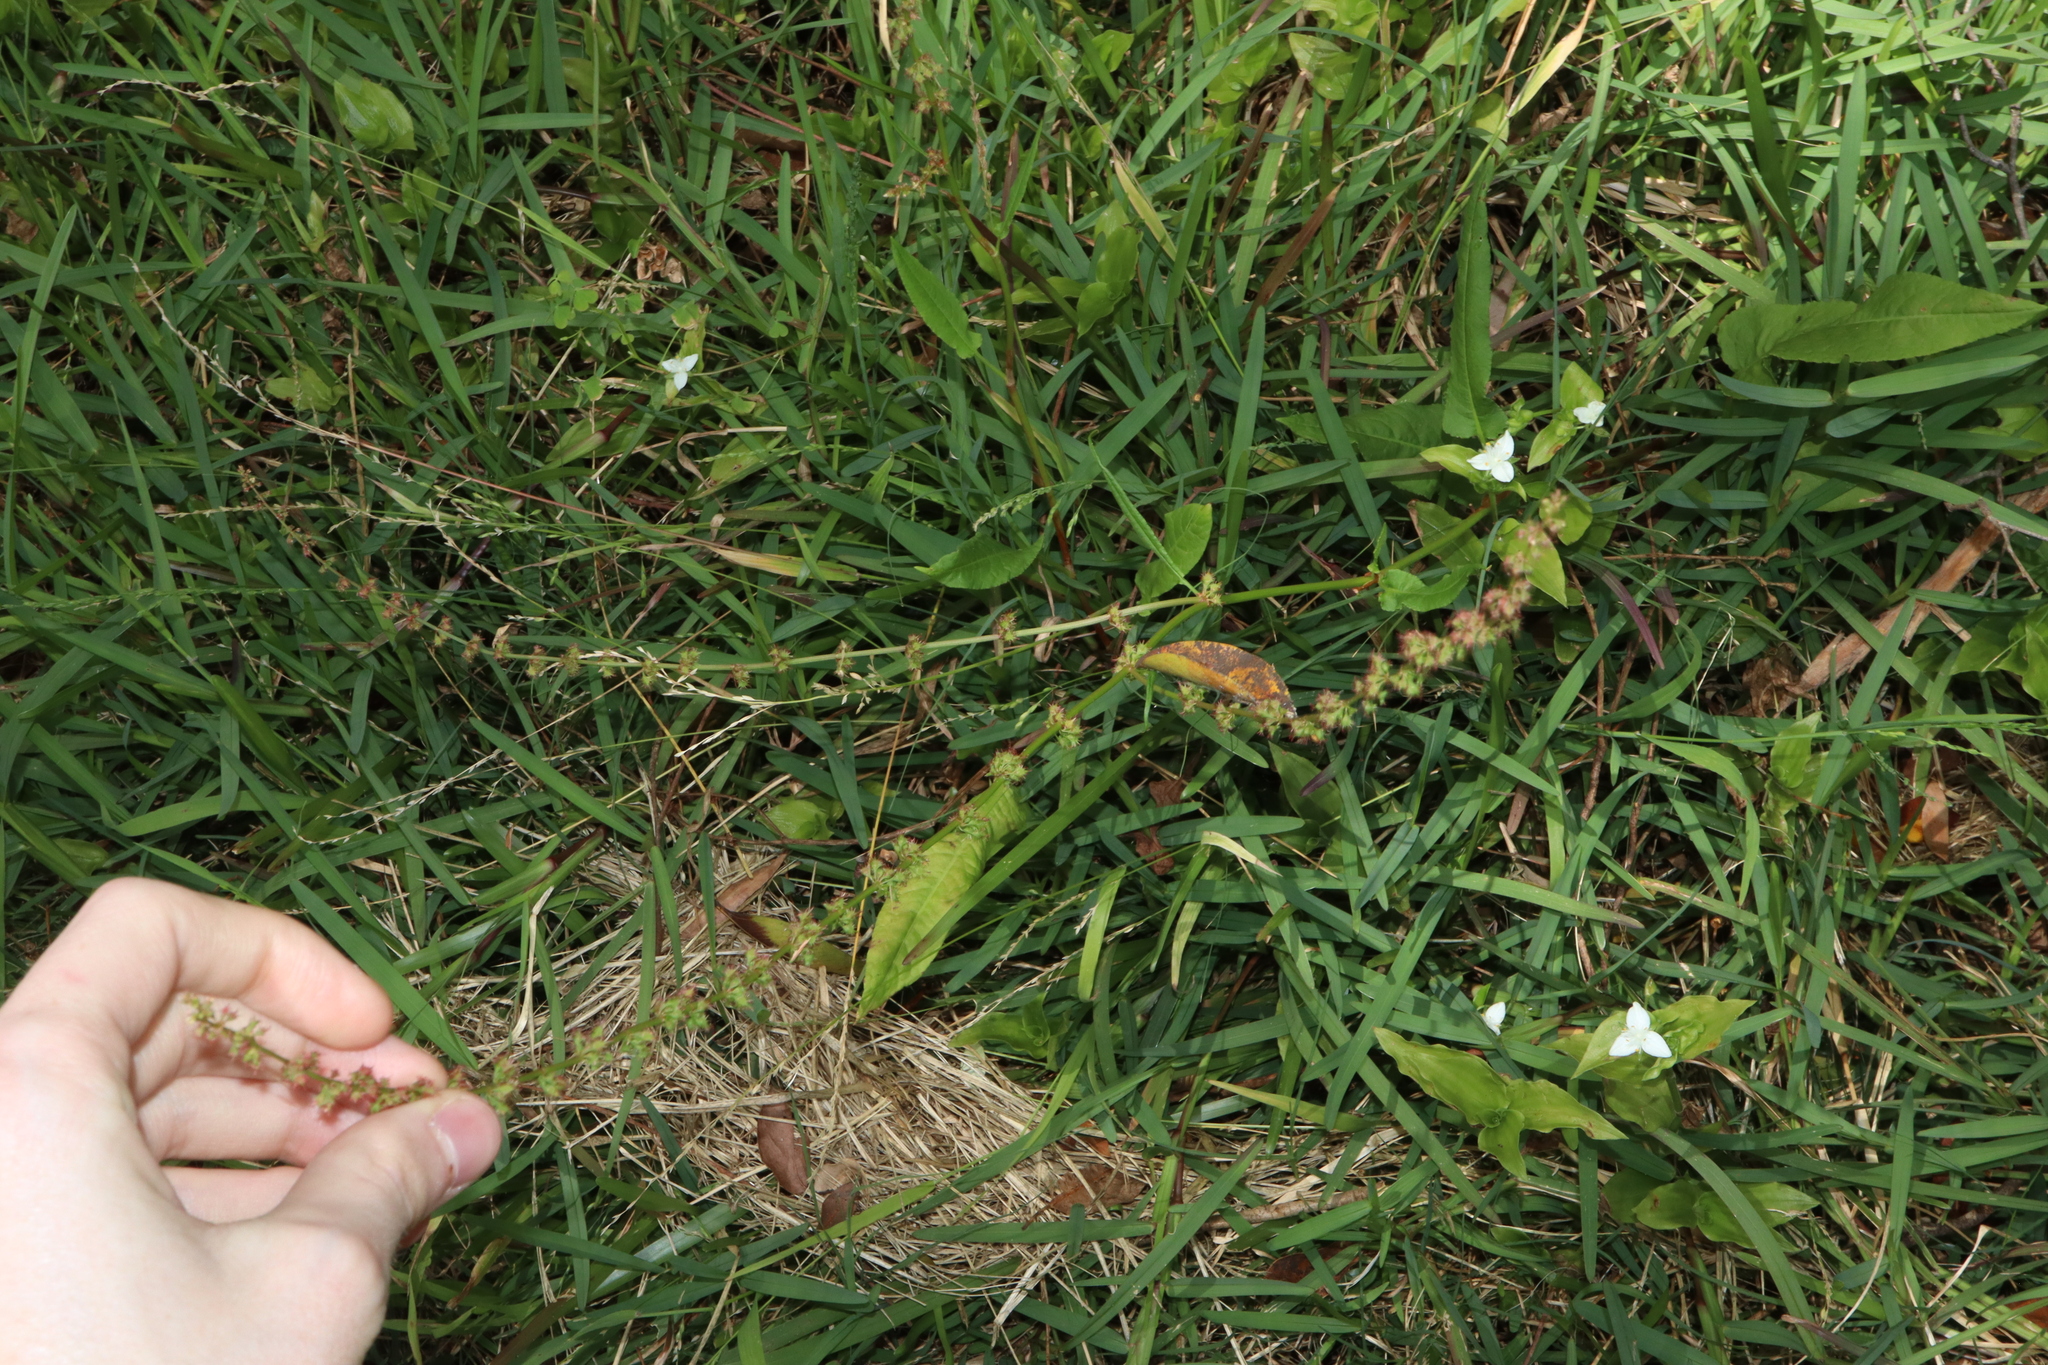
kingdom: Plantae
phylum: Tracheophyta
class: Magnoliopsida
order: Caryophyllales
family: Polygonaceae
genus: Rumex
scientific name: Rumex brownii
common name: Hooked dock
